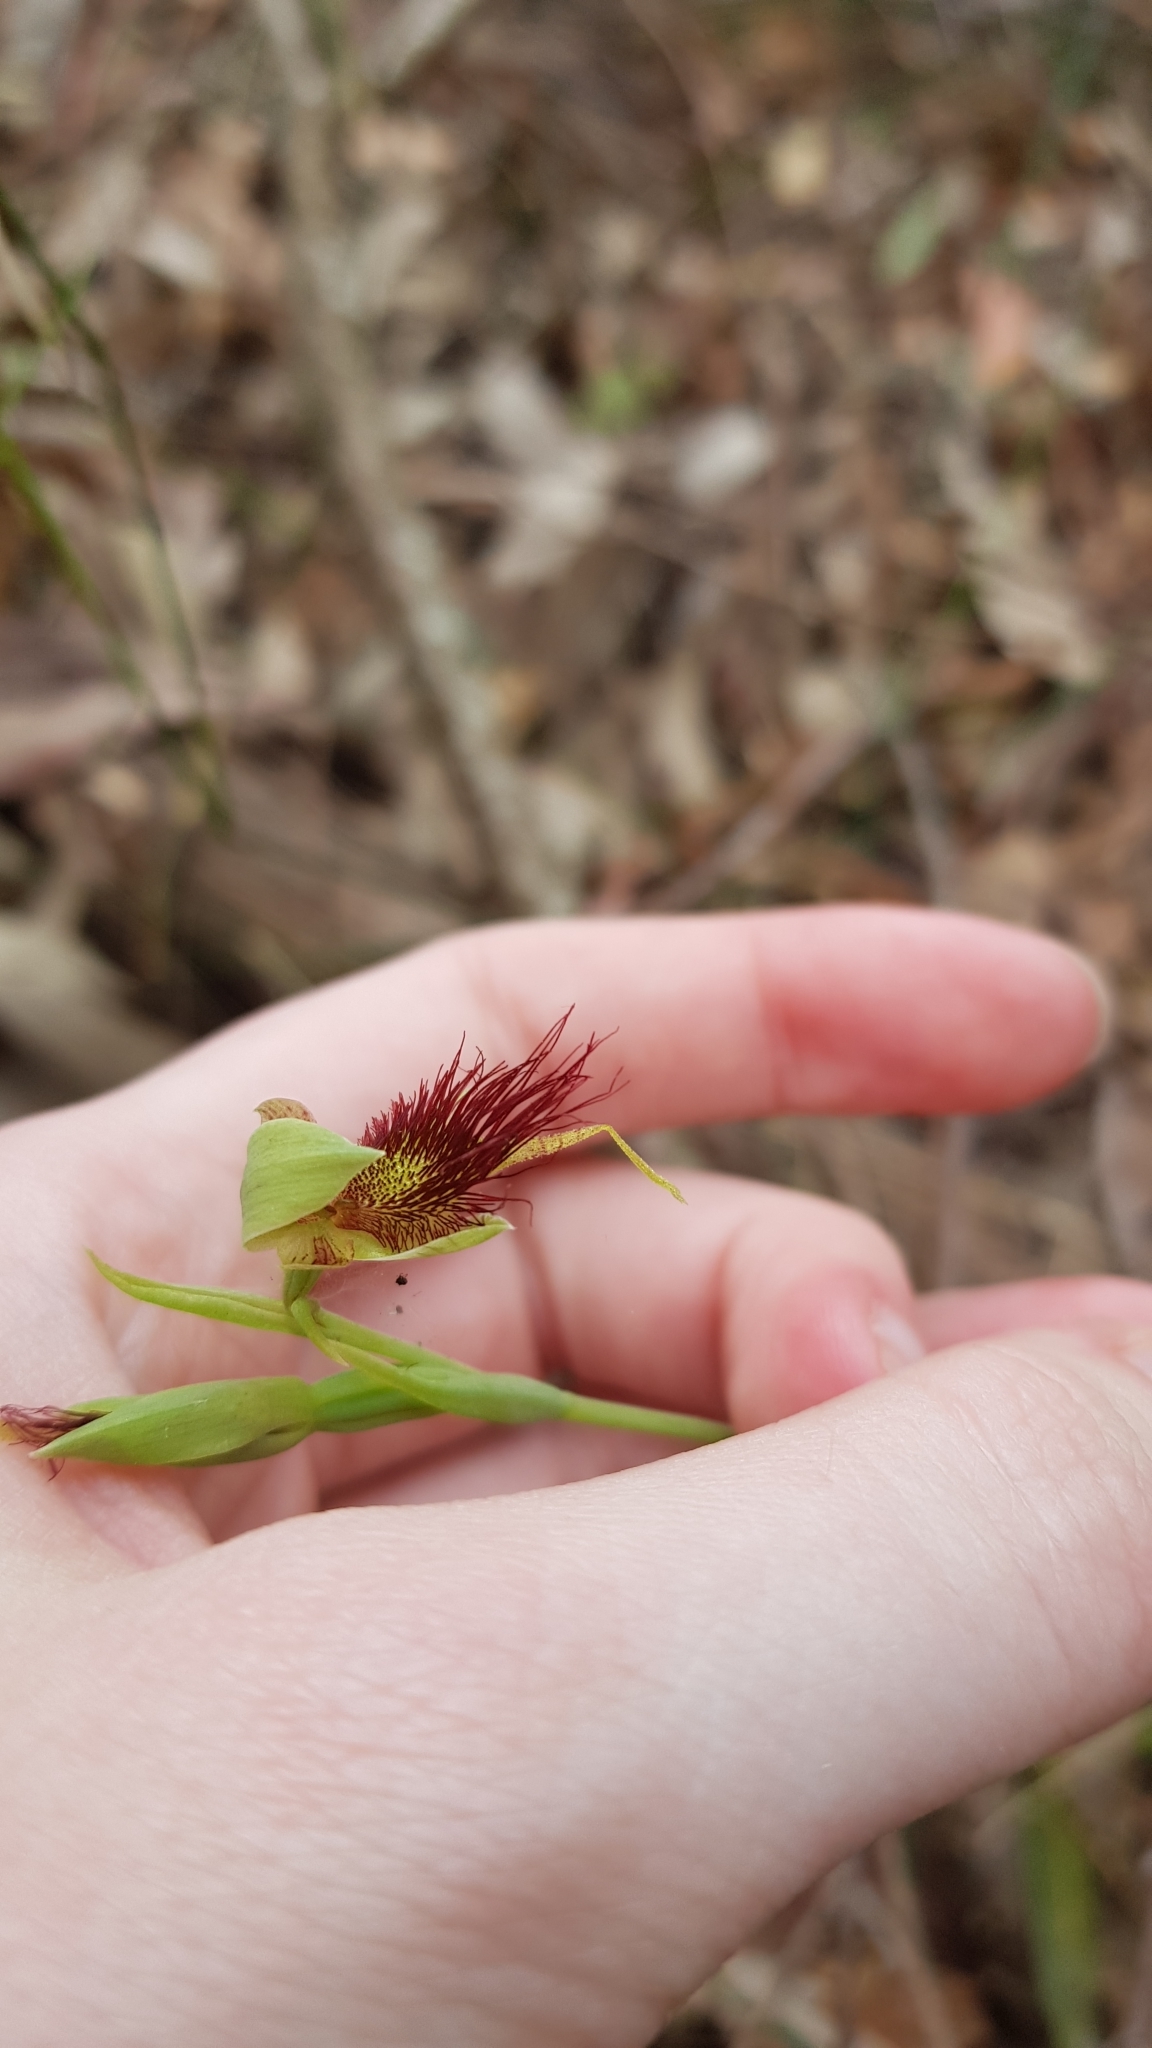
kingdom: Plantae
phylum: Tracheophyta
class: Liliopsida
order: Asparagales
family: Orchidaceae
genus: Calochilus
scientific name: Calochilus paludosus
